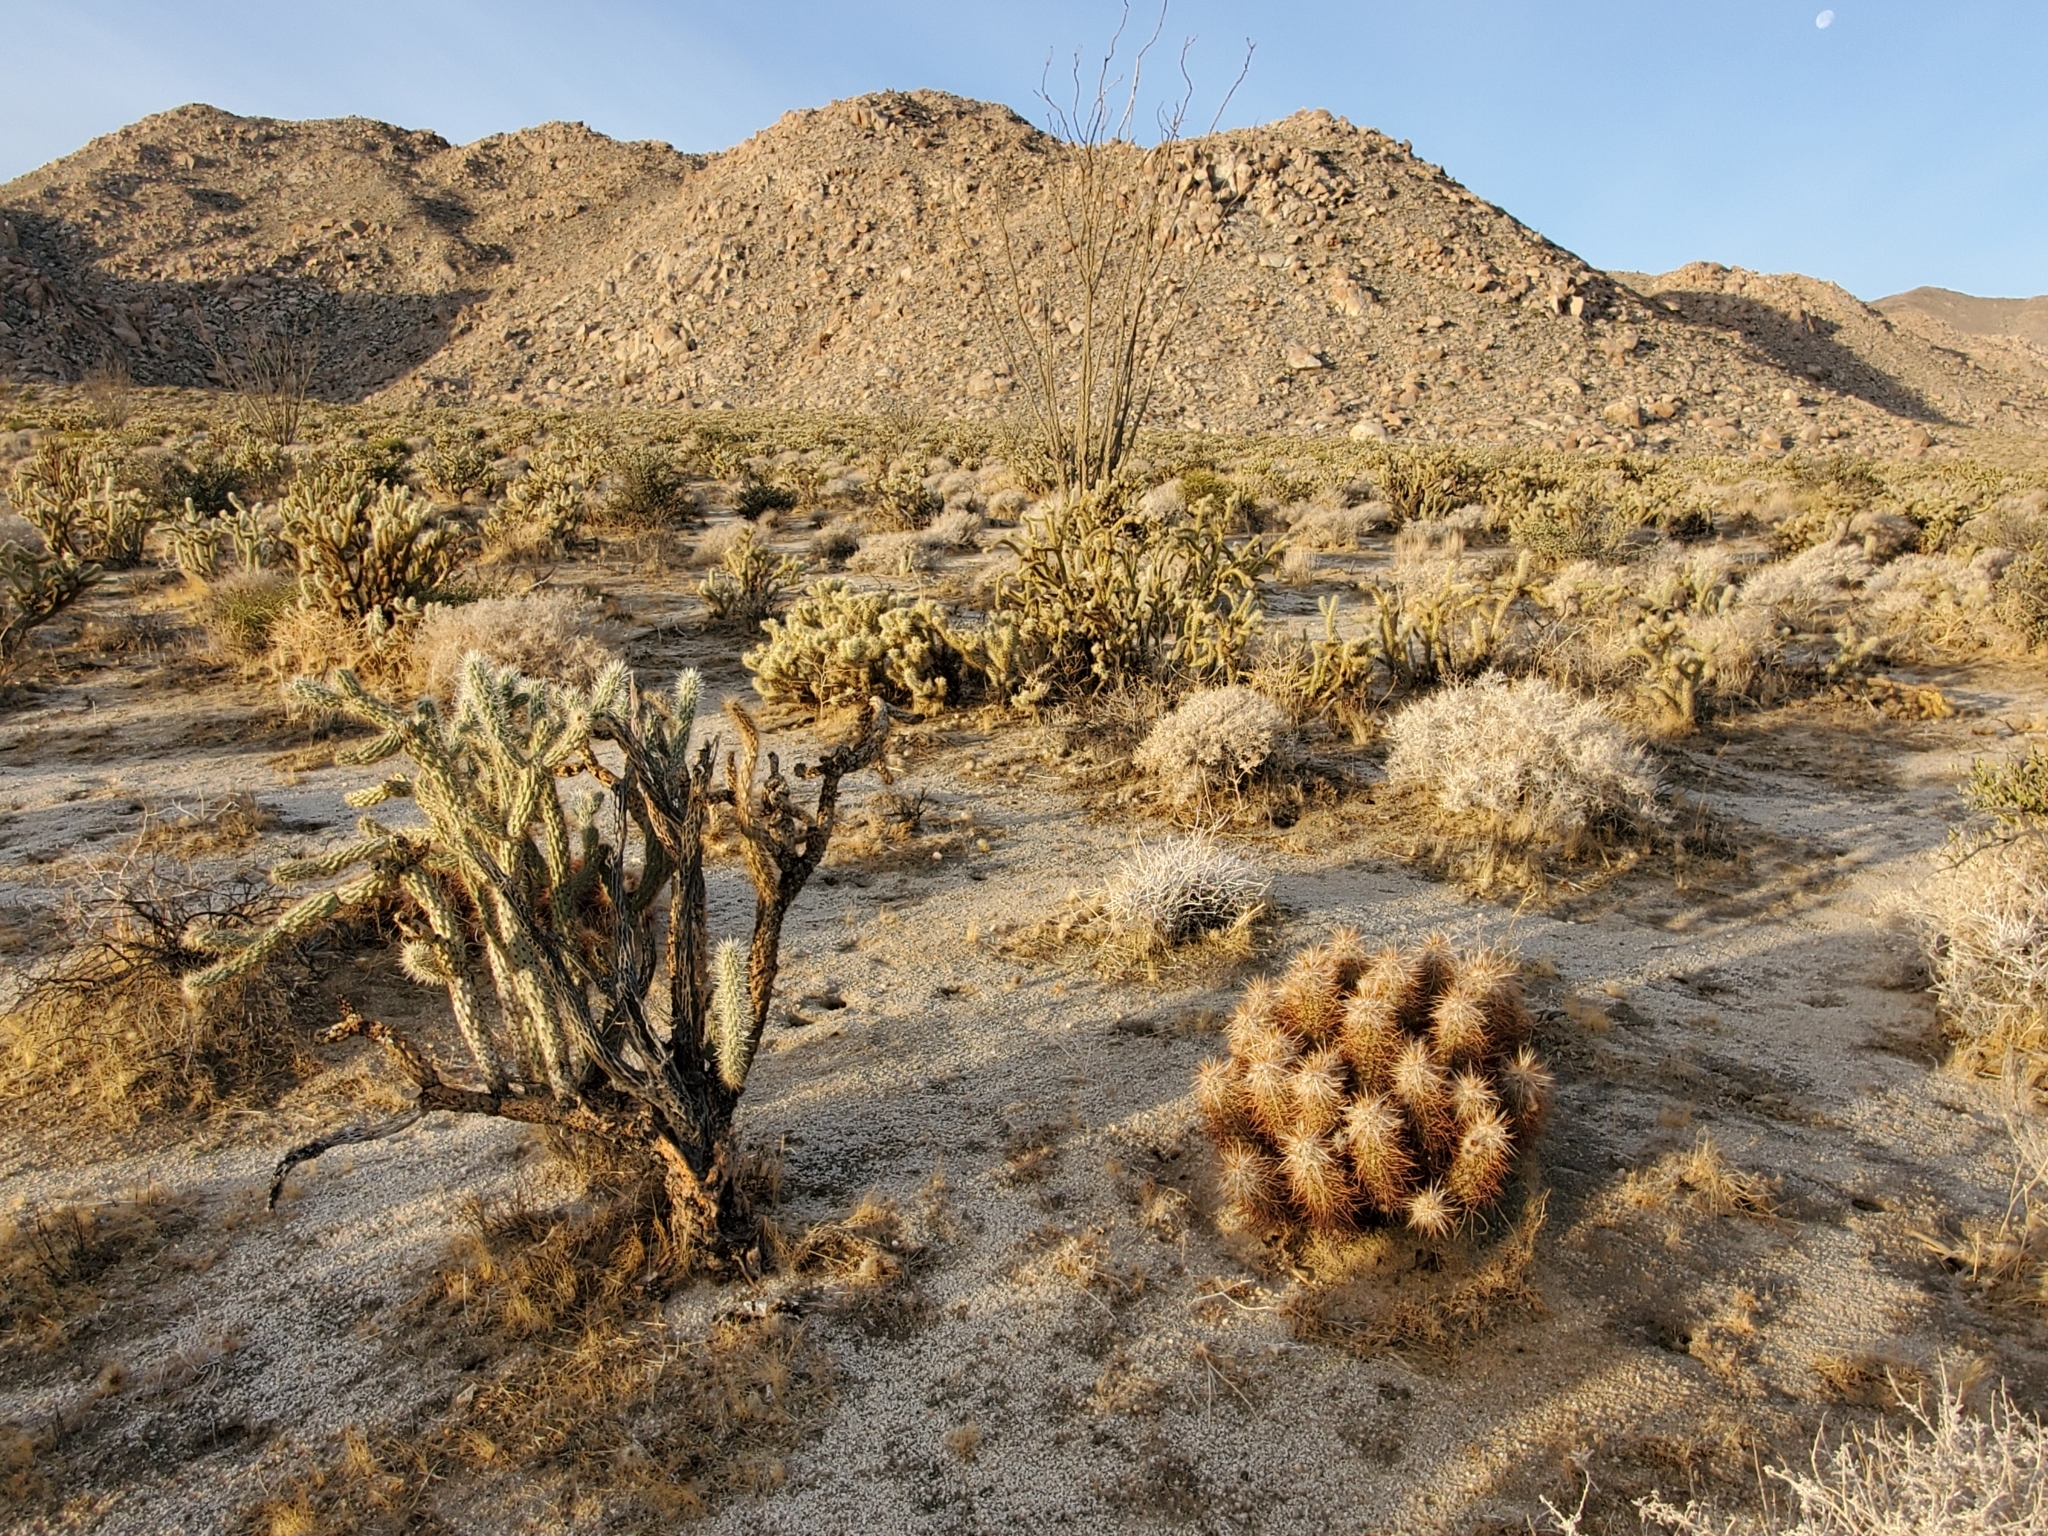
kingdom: Plantae
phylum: Tracheophyta
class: Magnoliopsida
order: Caryophyllales
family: Cactaceae
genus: Echinocereus
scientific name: Echinocereus engelmannii
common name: Engelmann's hedgehog cactus
